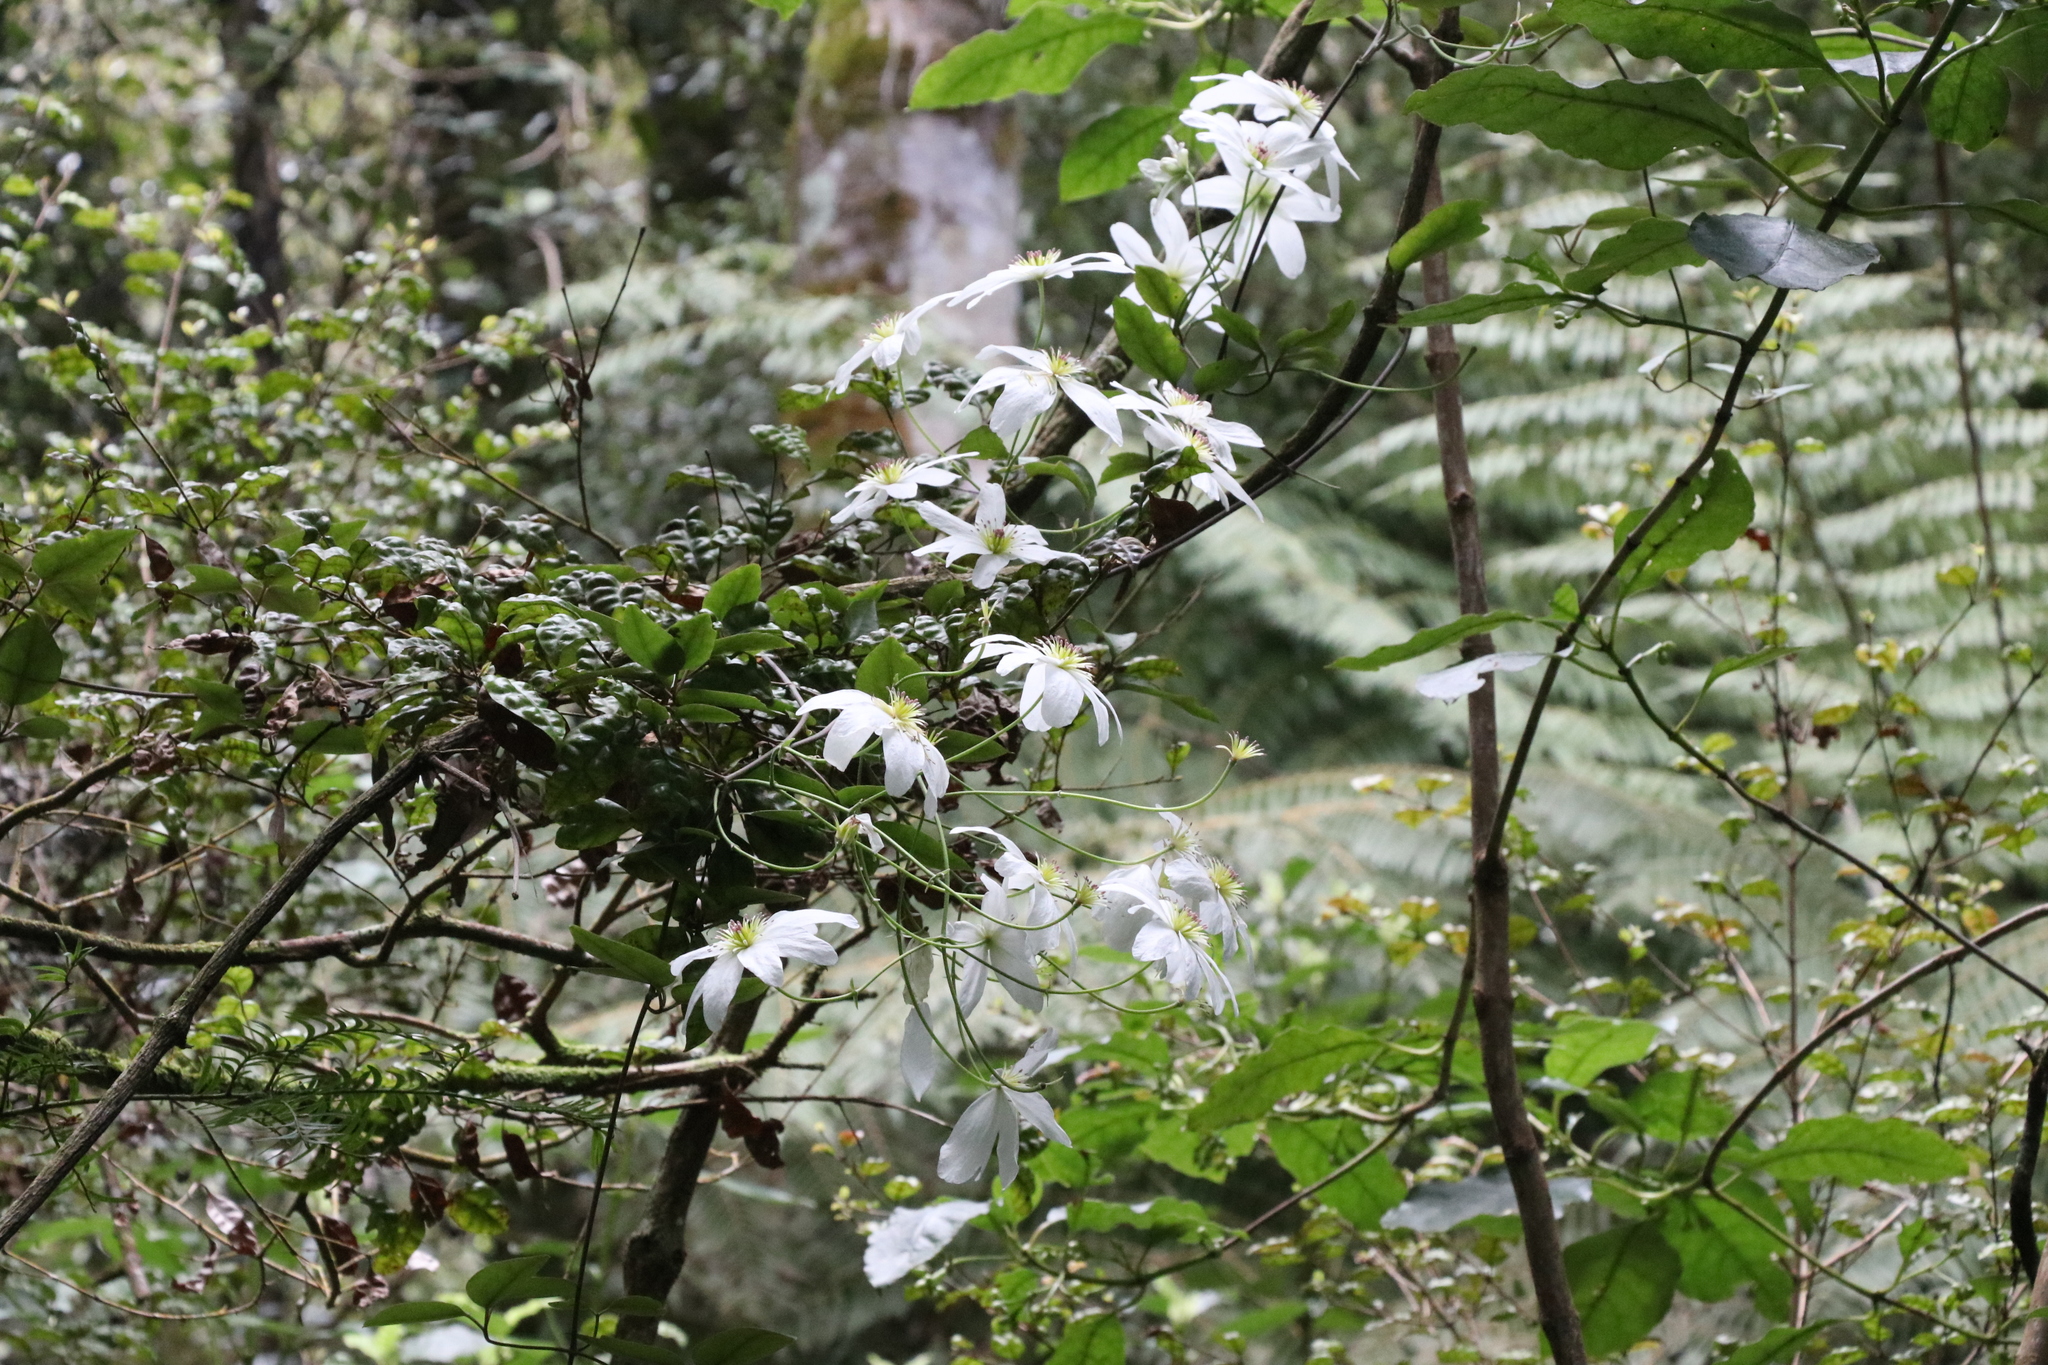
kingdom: Plantae
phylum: Tracheophyta
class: Magnoliopsida
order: Ranunculales
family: Ranunculaceae
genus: Clematis
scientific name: Clematis paniculata
